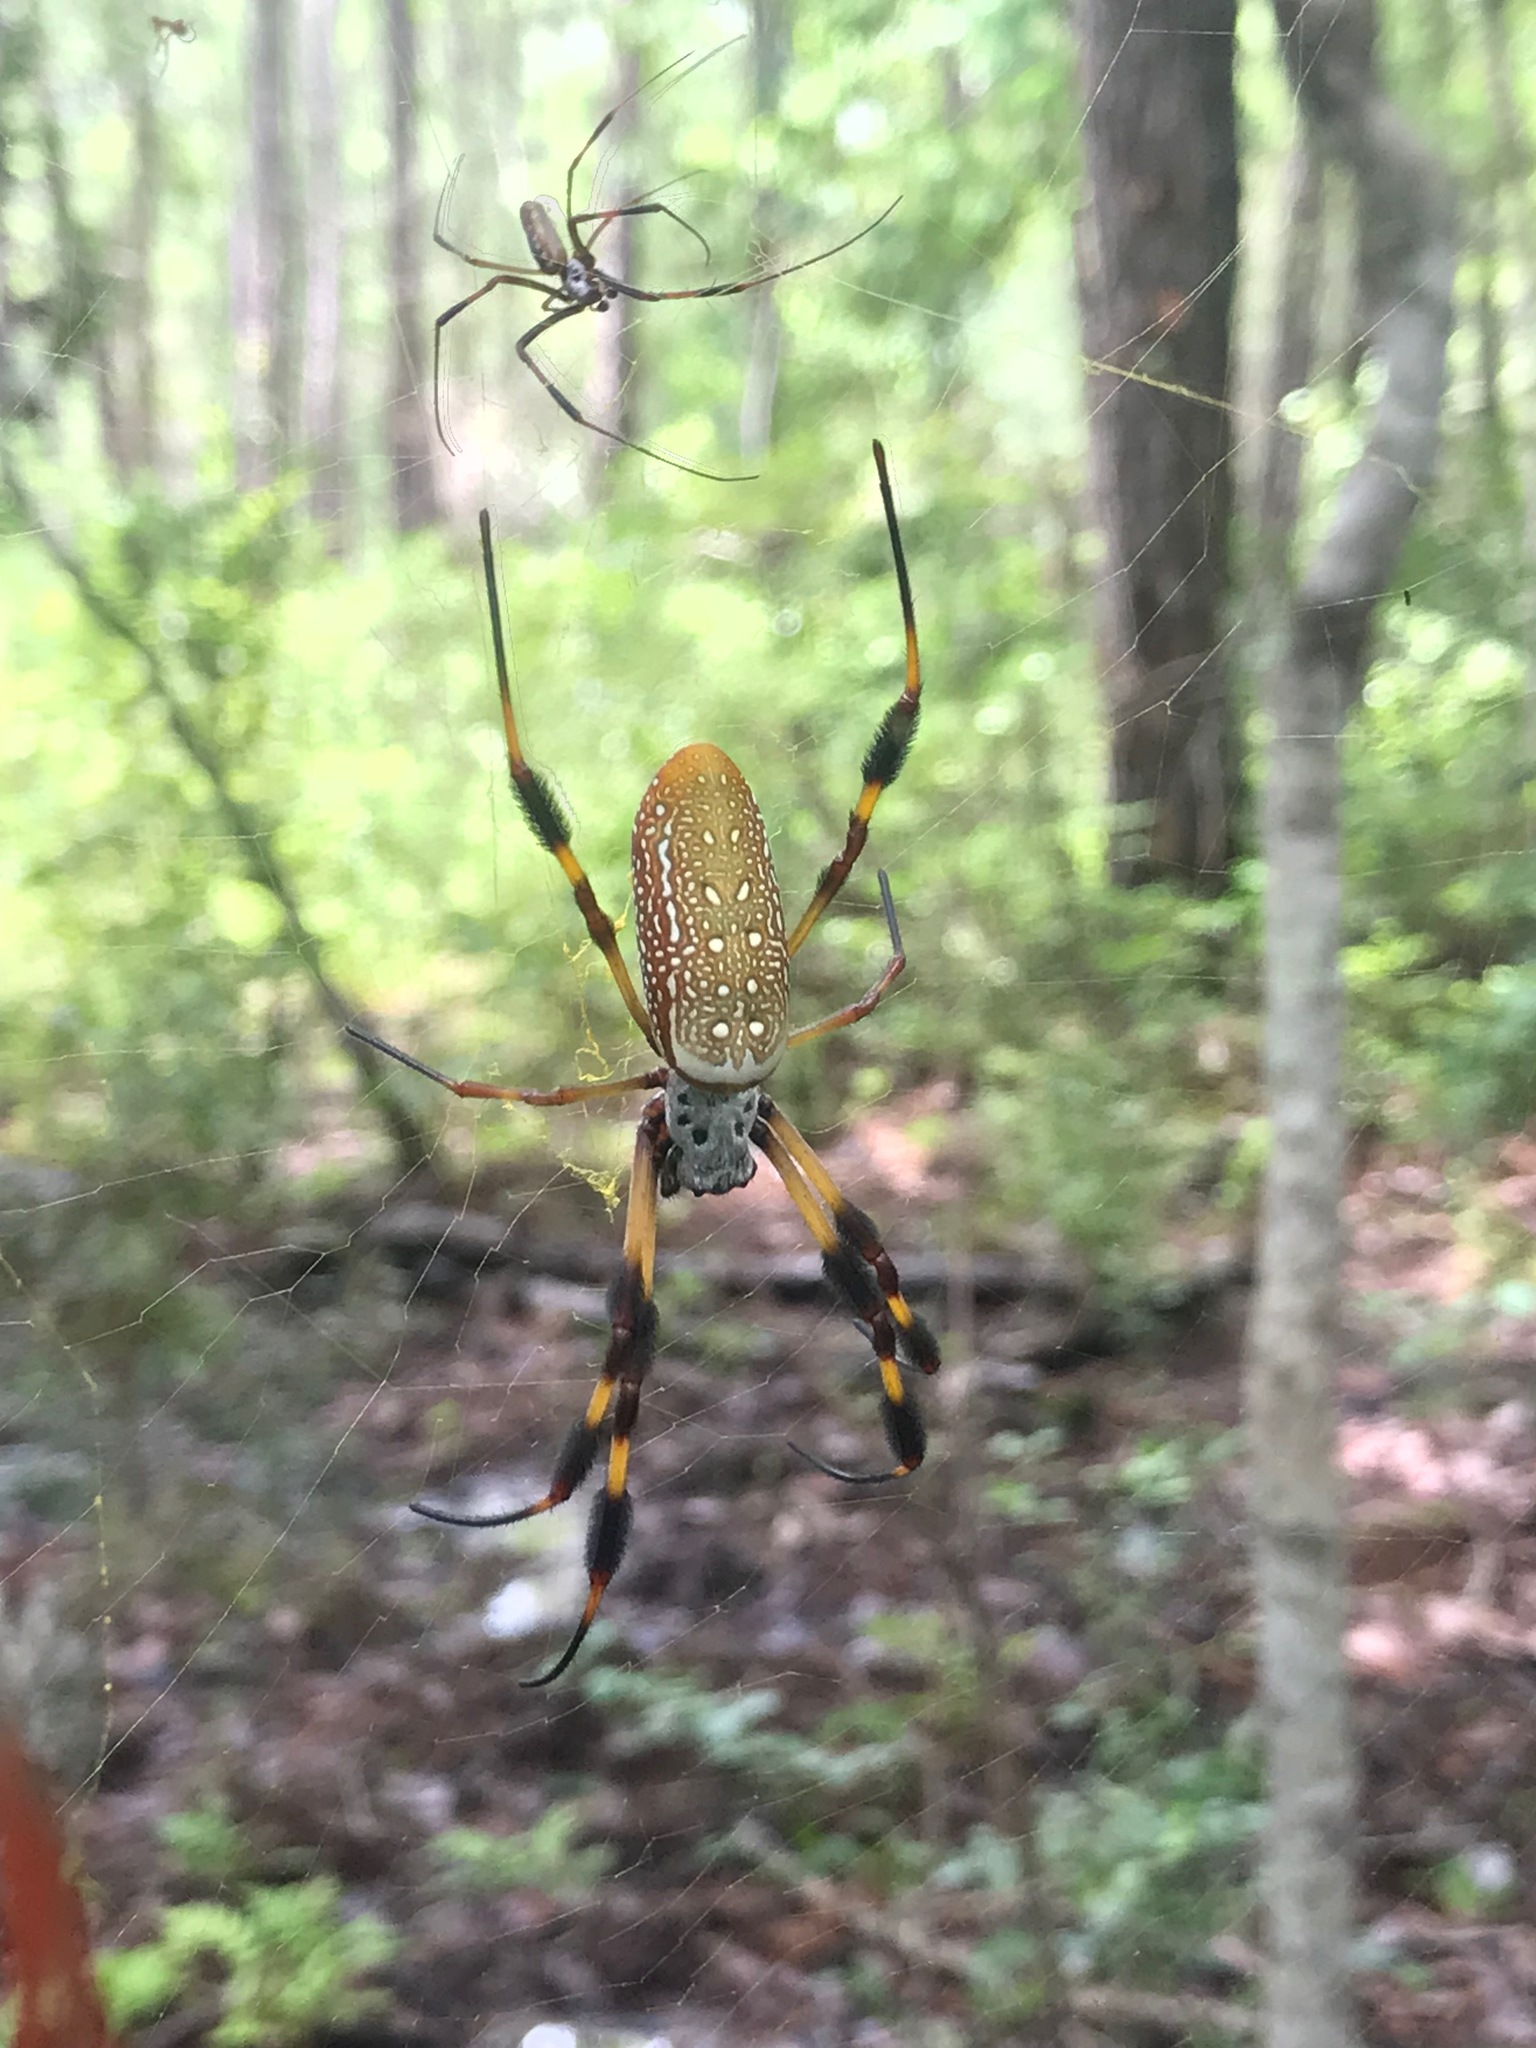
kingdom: Animalia
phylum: Arthropoda
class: Arachnida
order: Araneae
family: Araneidae
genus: Trichonephila
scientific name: Trichonephila clavipes
